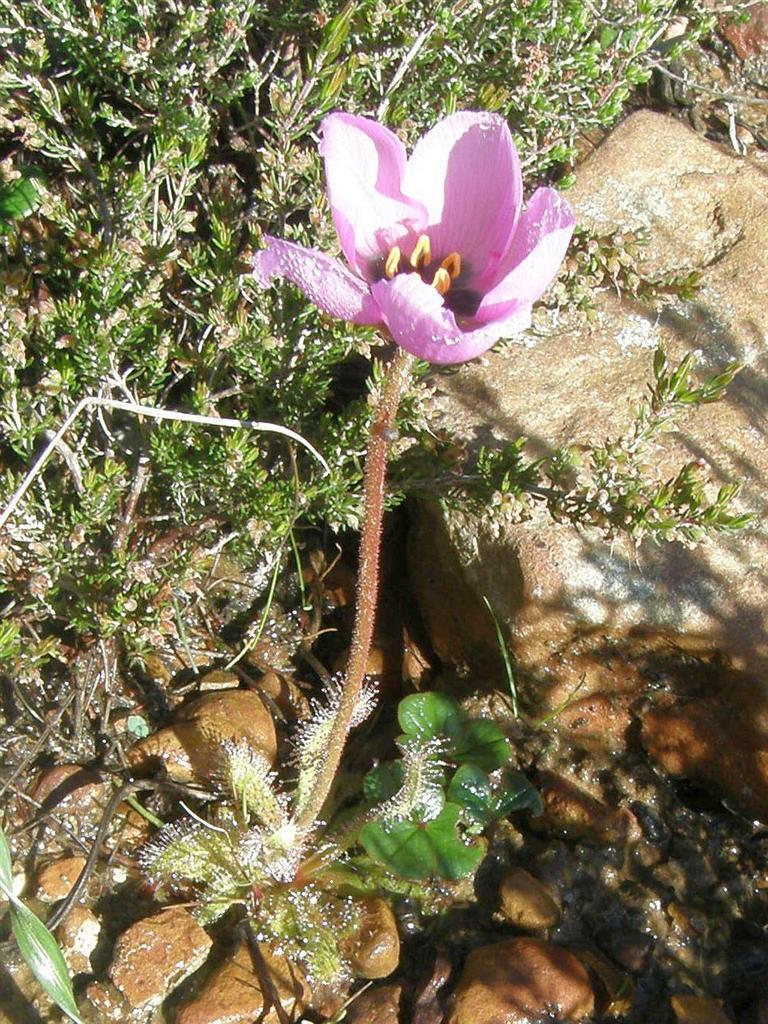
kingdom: Plantae
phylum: Tracheophyta
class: Magnoliopsida
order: Caryophyllales
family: Droseraceae
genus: Drosera
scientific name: Drosera cistiflora
